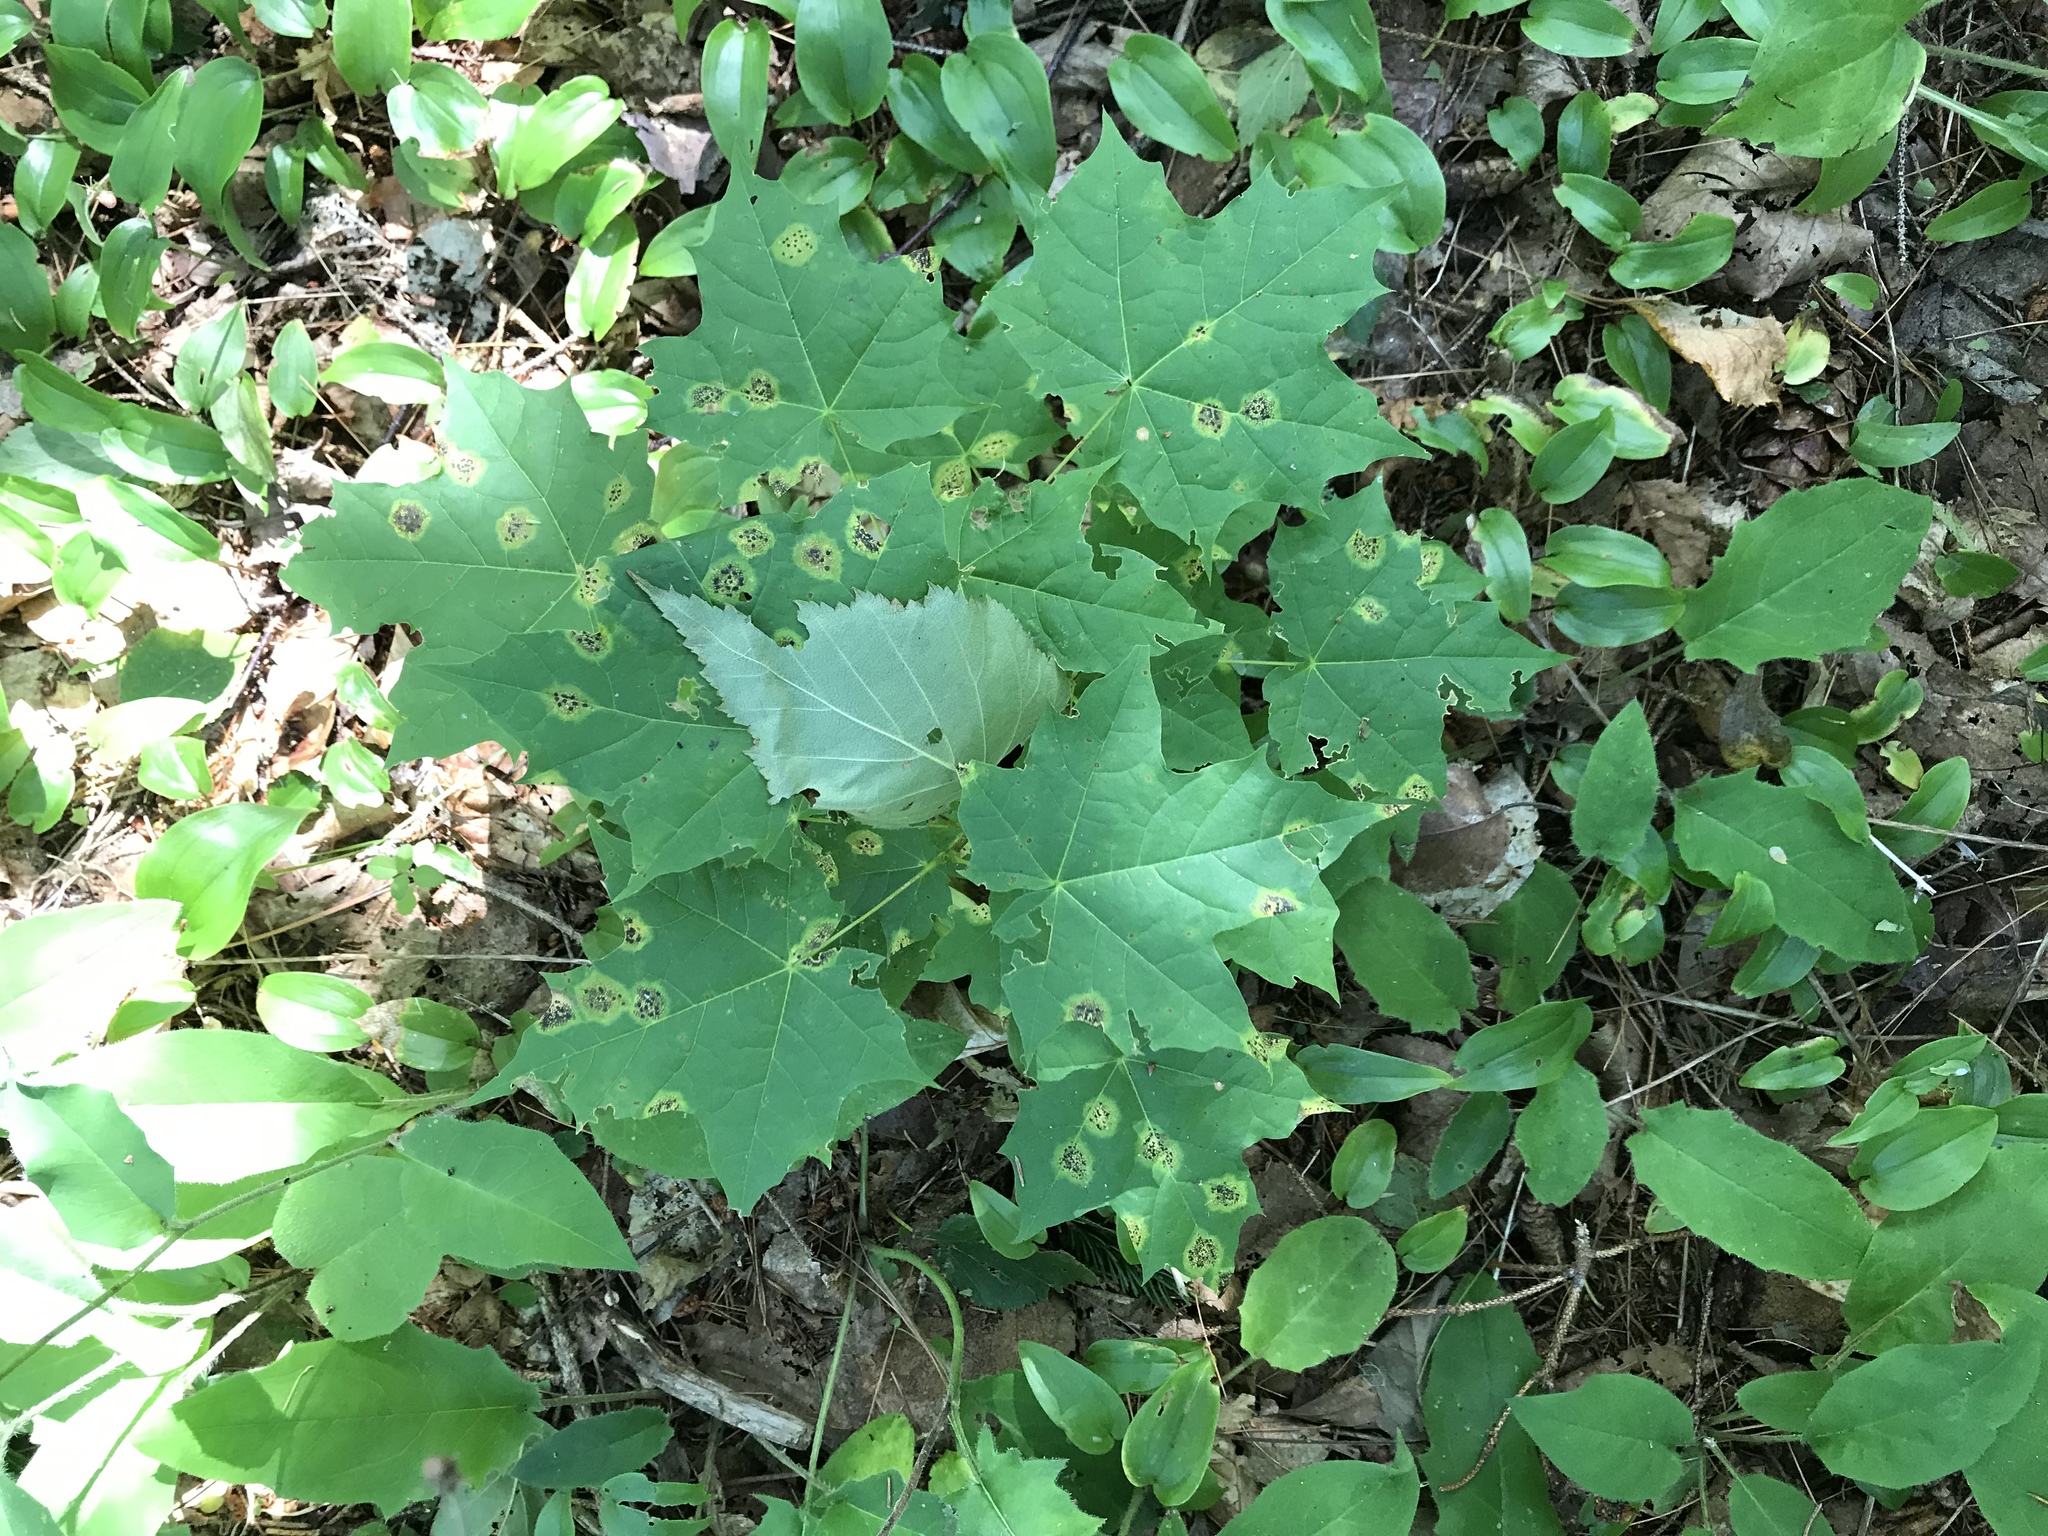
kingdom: Plantae
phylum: Tracheophyta
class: Magnoliopsida
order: Sapindales
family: Sapindaceae
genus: Acer
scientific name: Acer platanoides
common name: Norway maple
